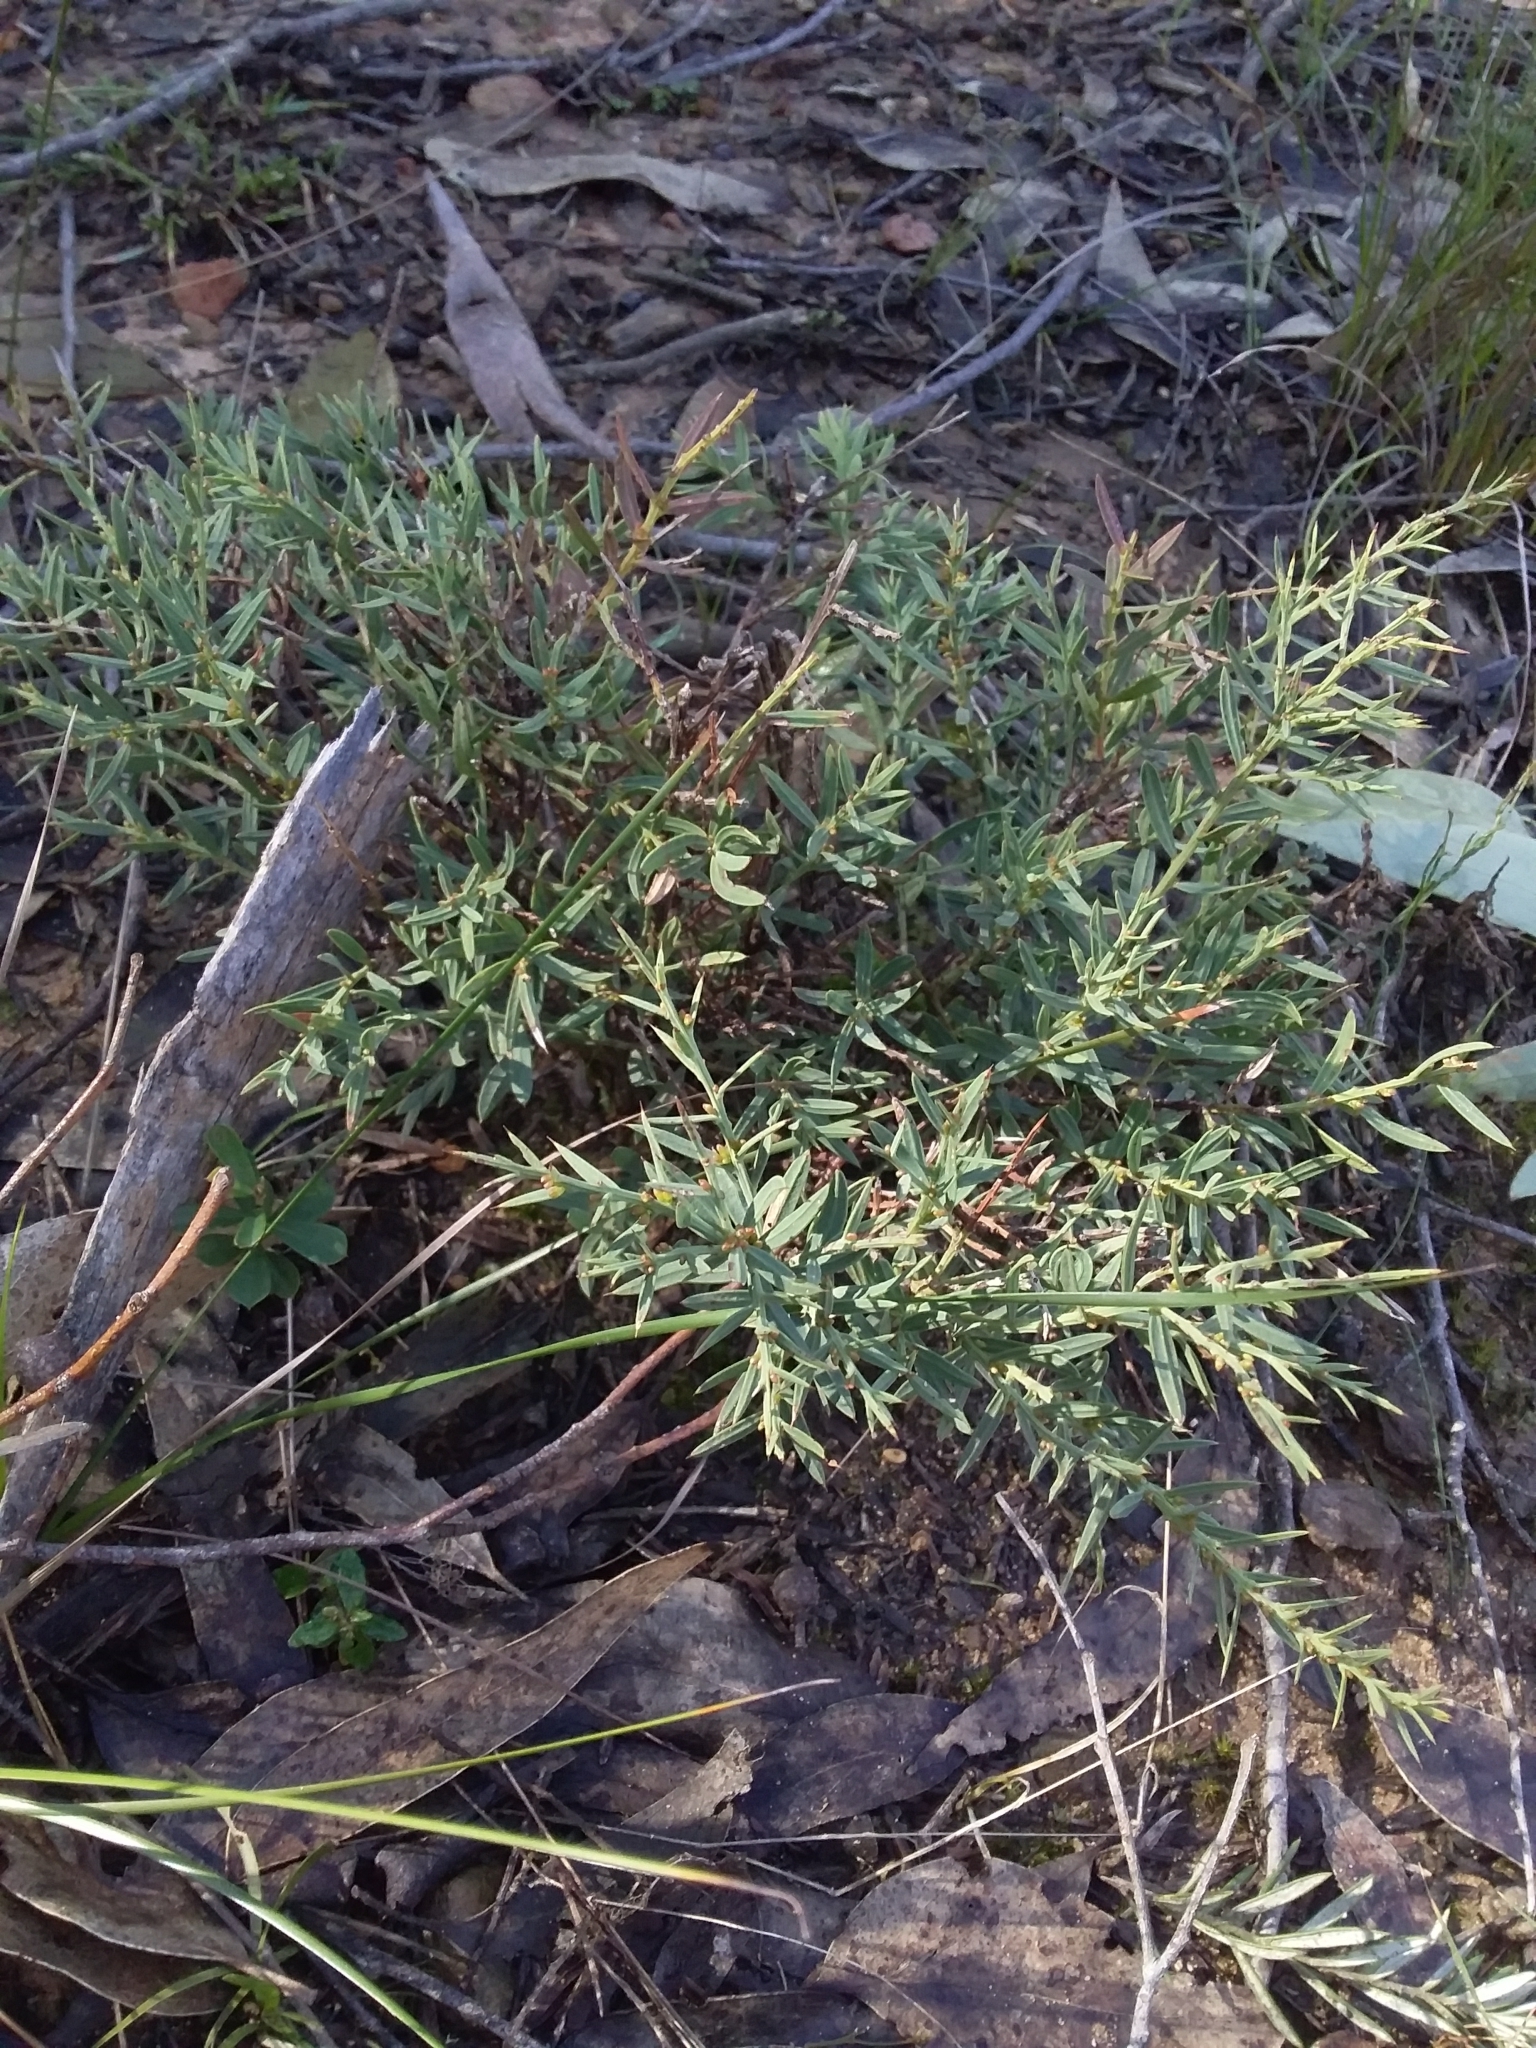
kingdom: Plantae
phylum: Tracheophyta
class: Magnoliopsida
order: Fabales
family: Fabaceae
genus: Daviesia
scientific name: Daviesia ulicifolia
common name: Gorse bitter-pea
